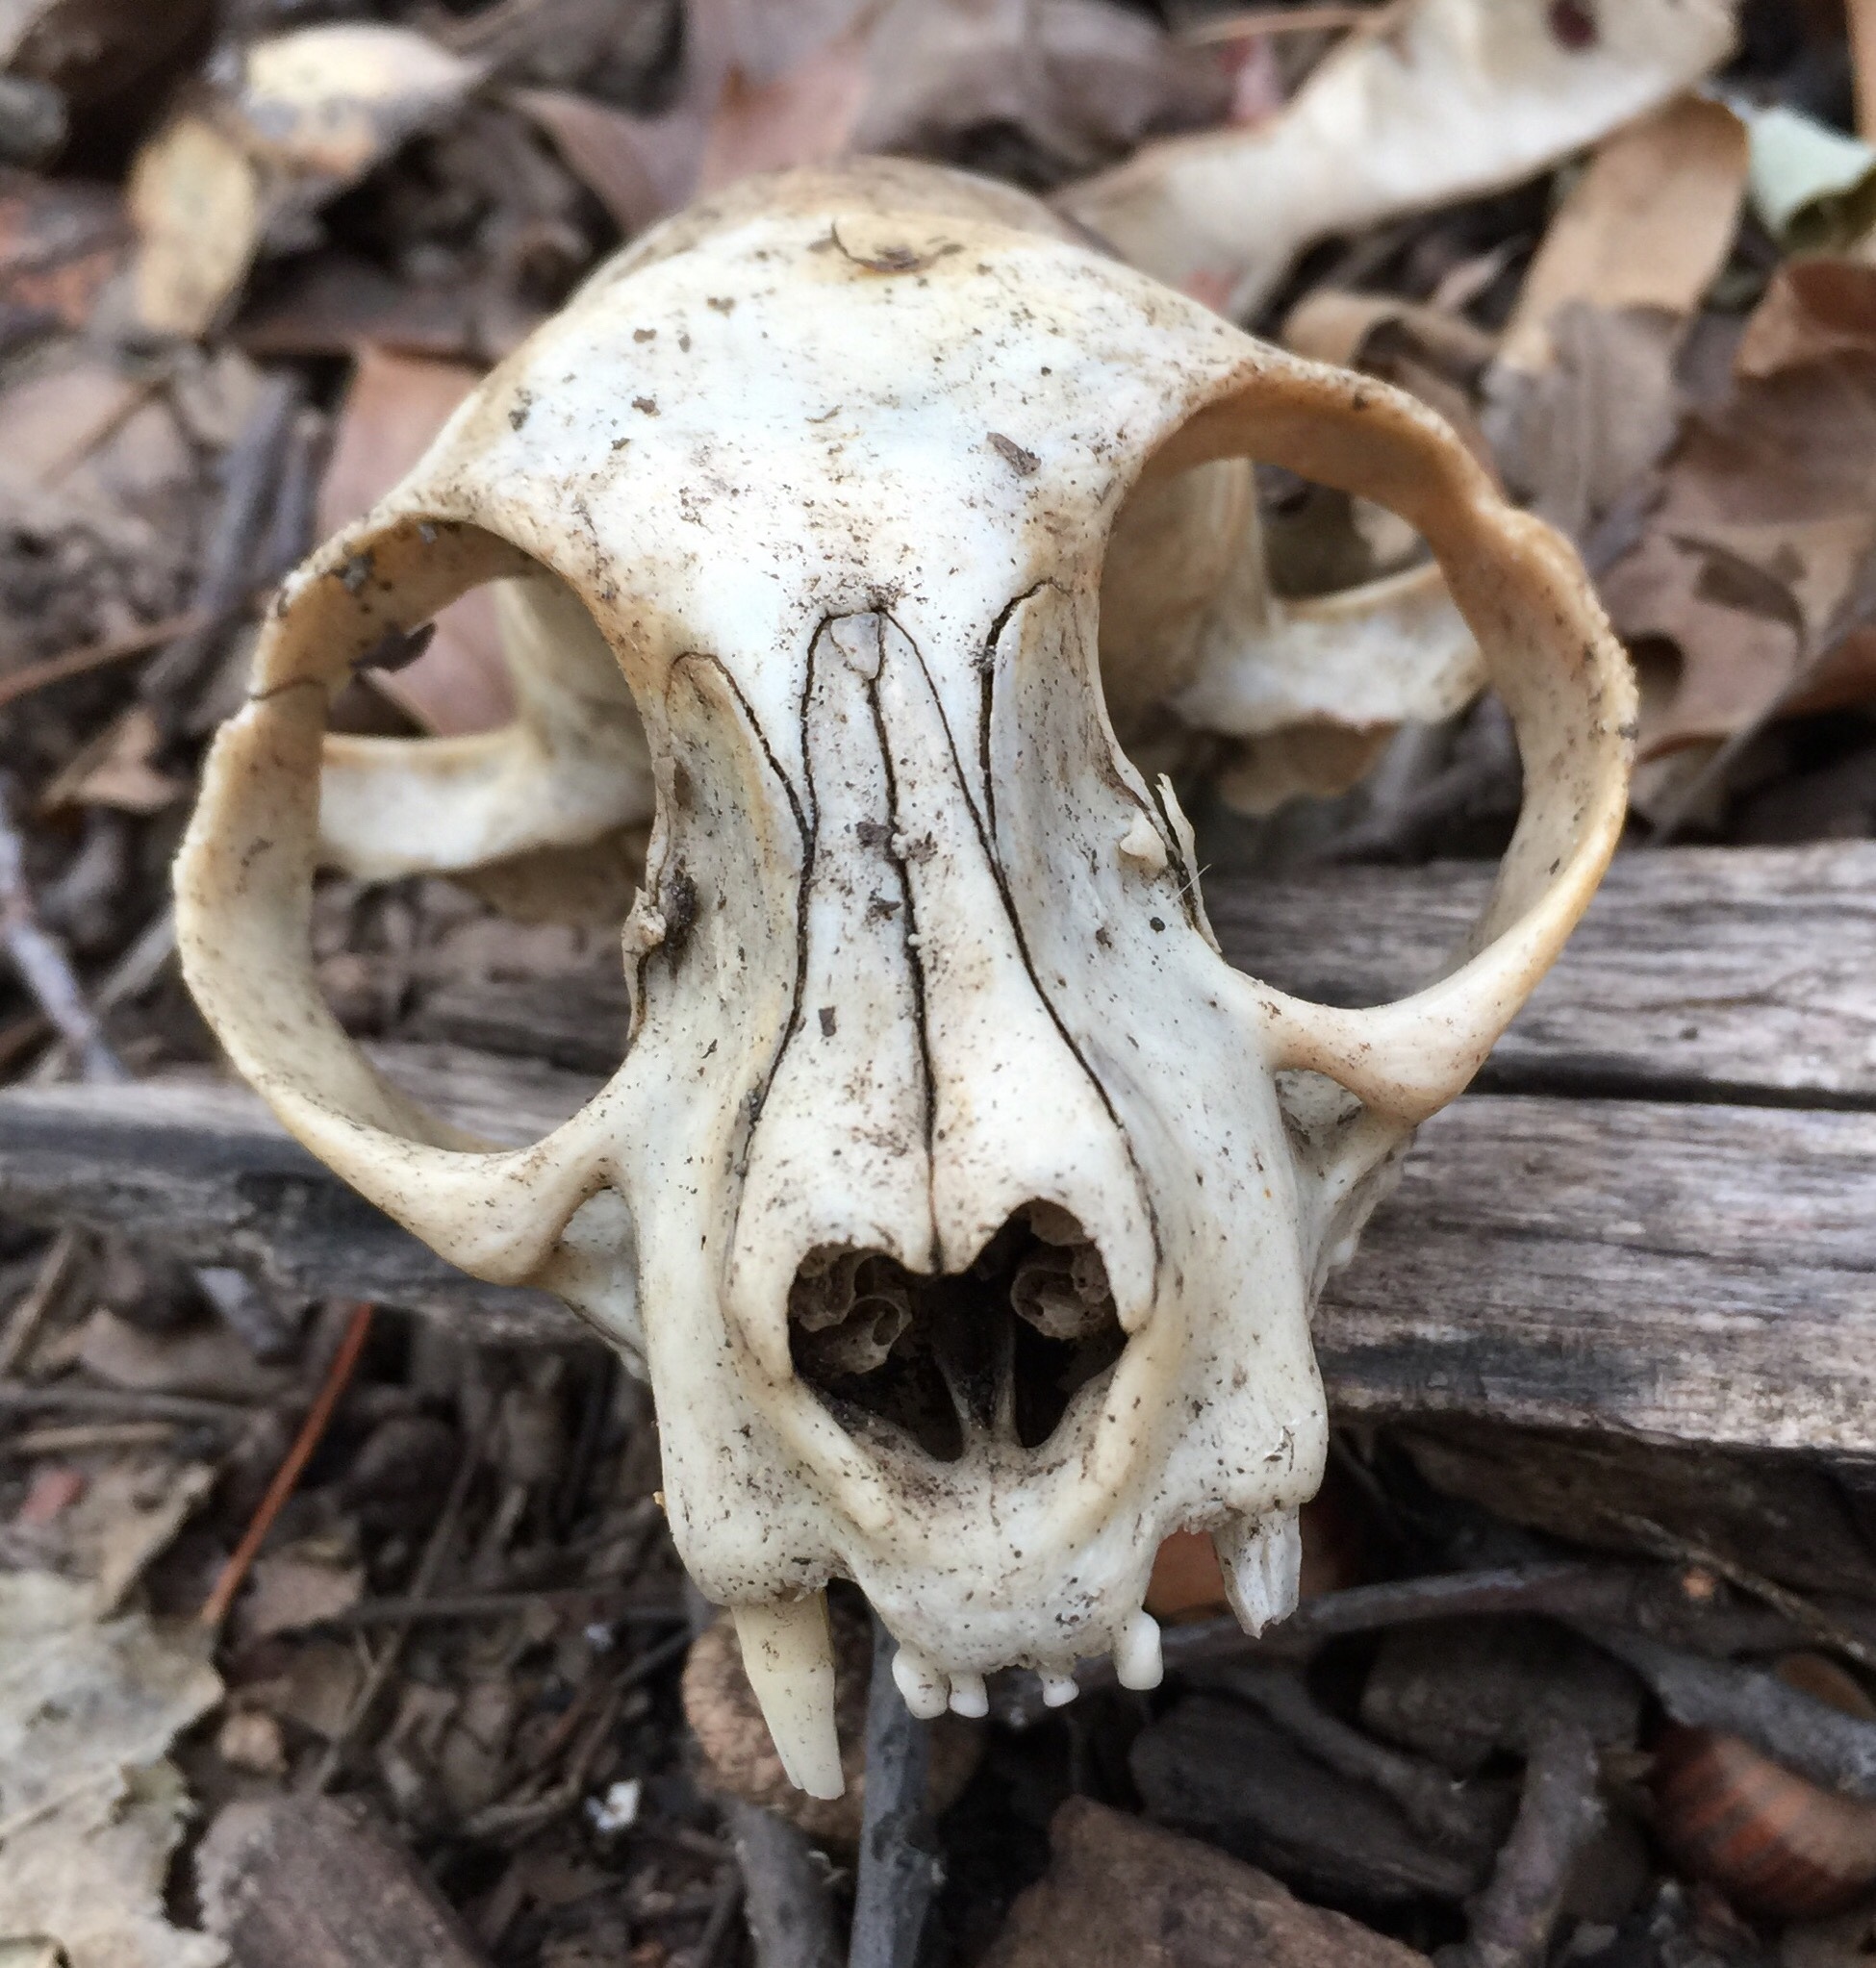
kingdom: Animalia
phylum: Chordata
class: Mammalia
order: Carnivora
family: Felidae
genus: Felis
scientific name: Felis catus
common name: Domestic cat
